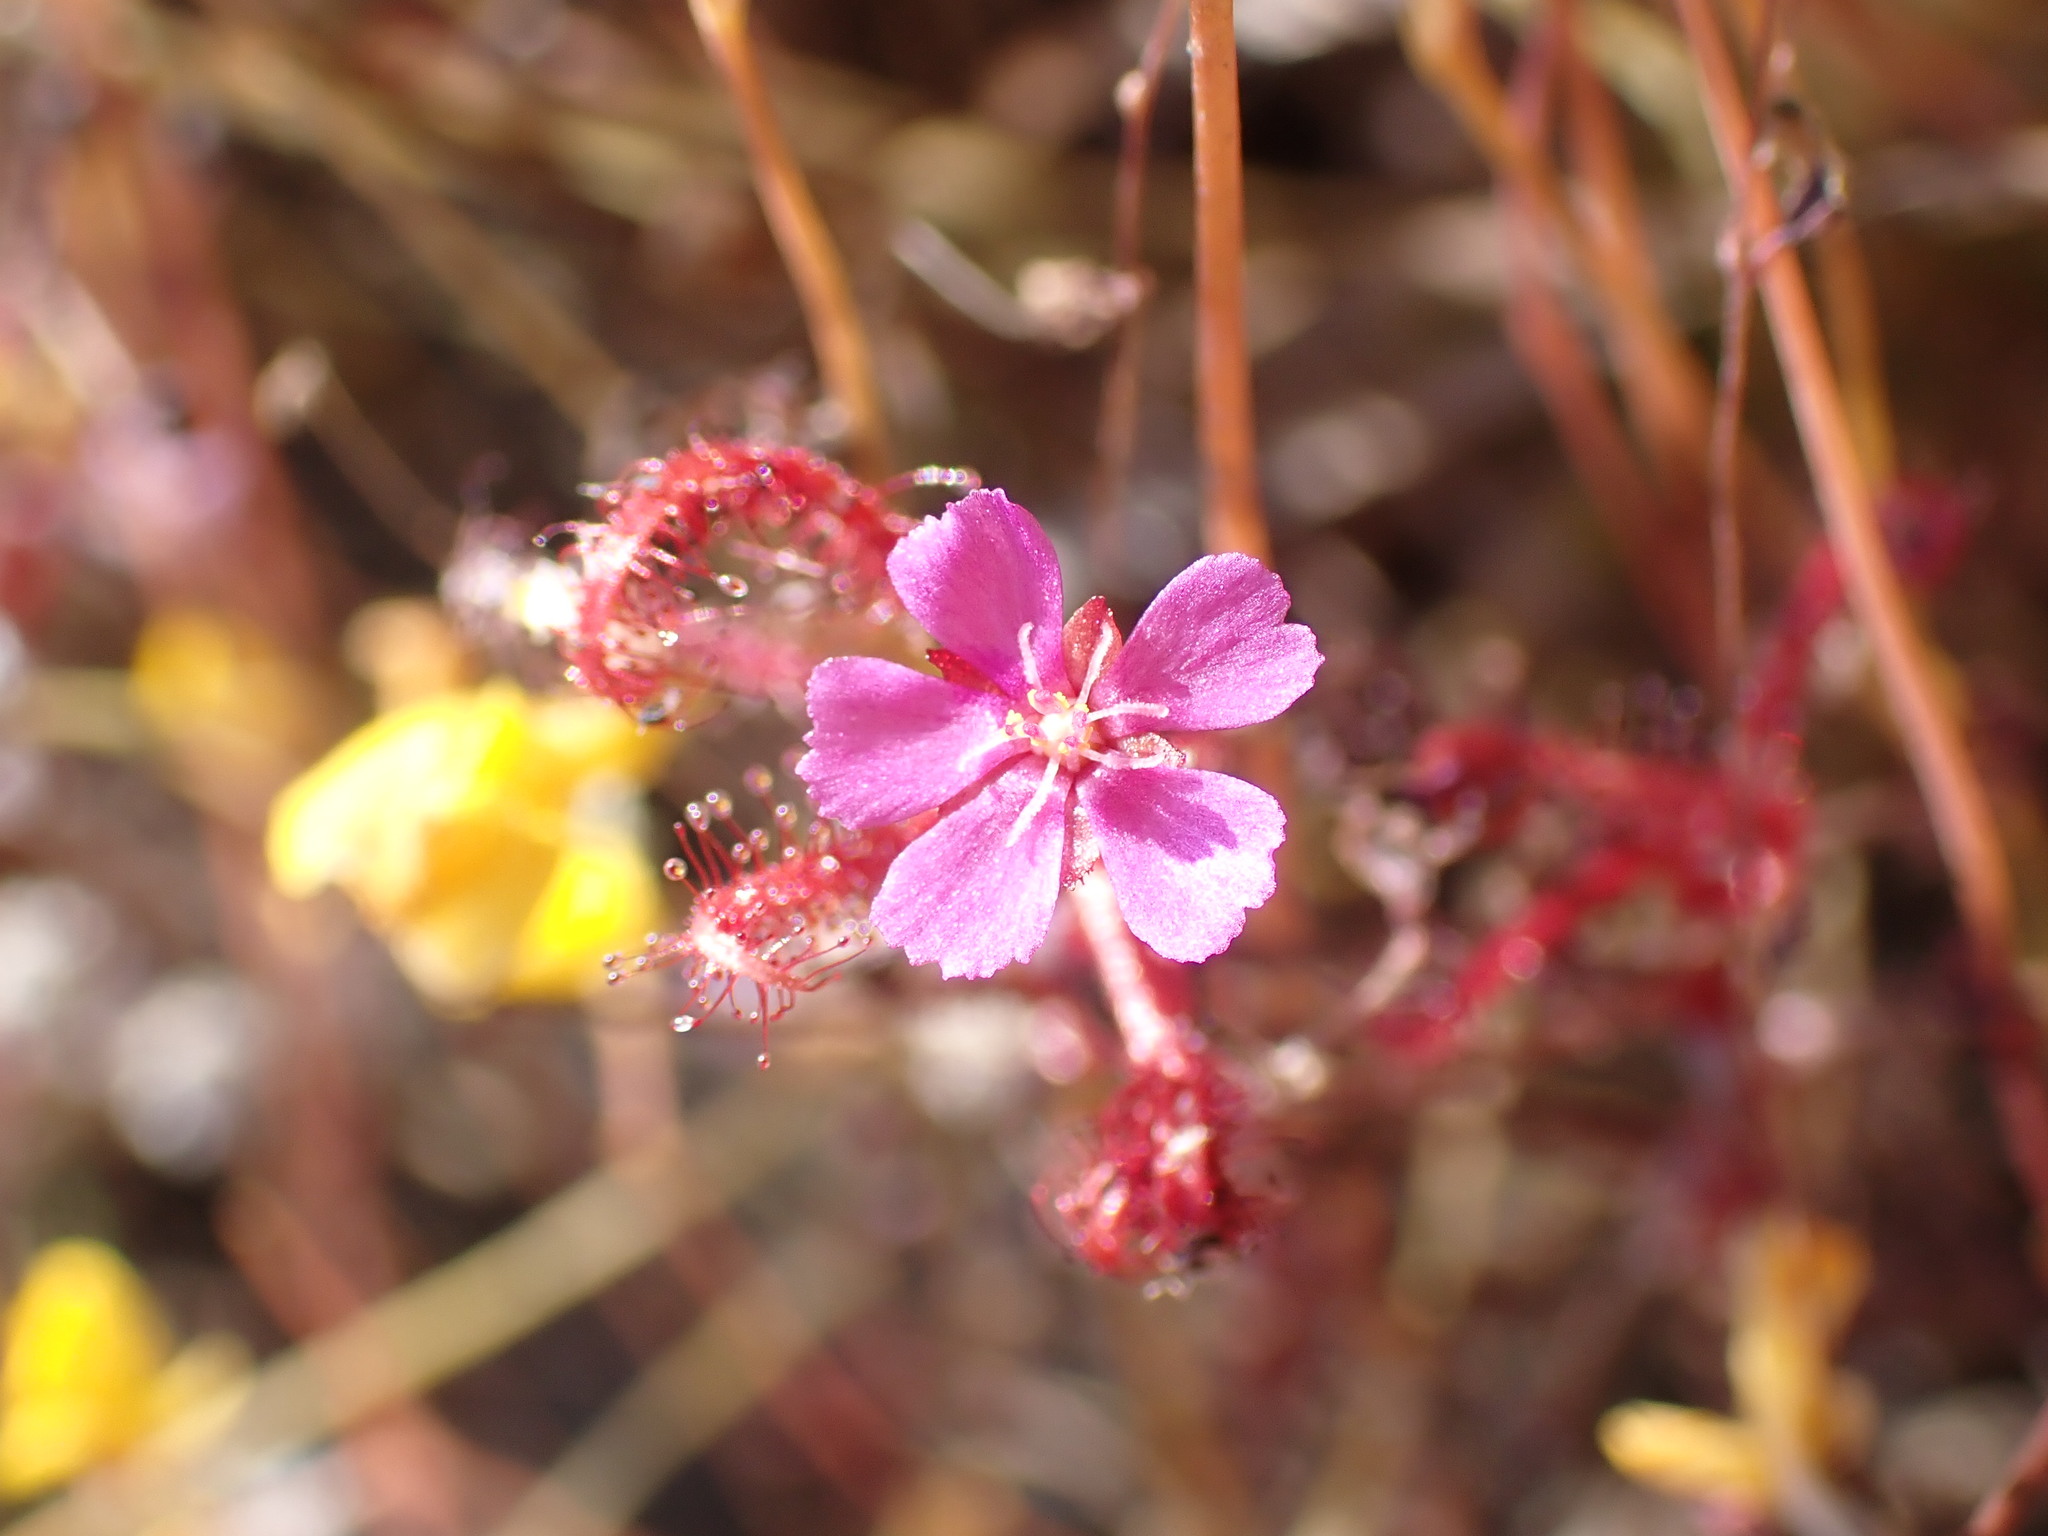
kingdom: Plantae
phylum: Tracheophyta
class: Magnoliopsida
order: Caryophyllales
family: Droseraceae
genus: Drosera
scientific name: Drosera indica
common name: Indian sundew
